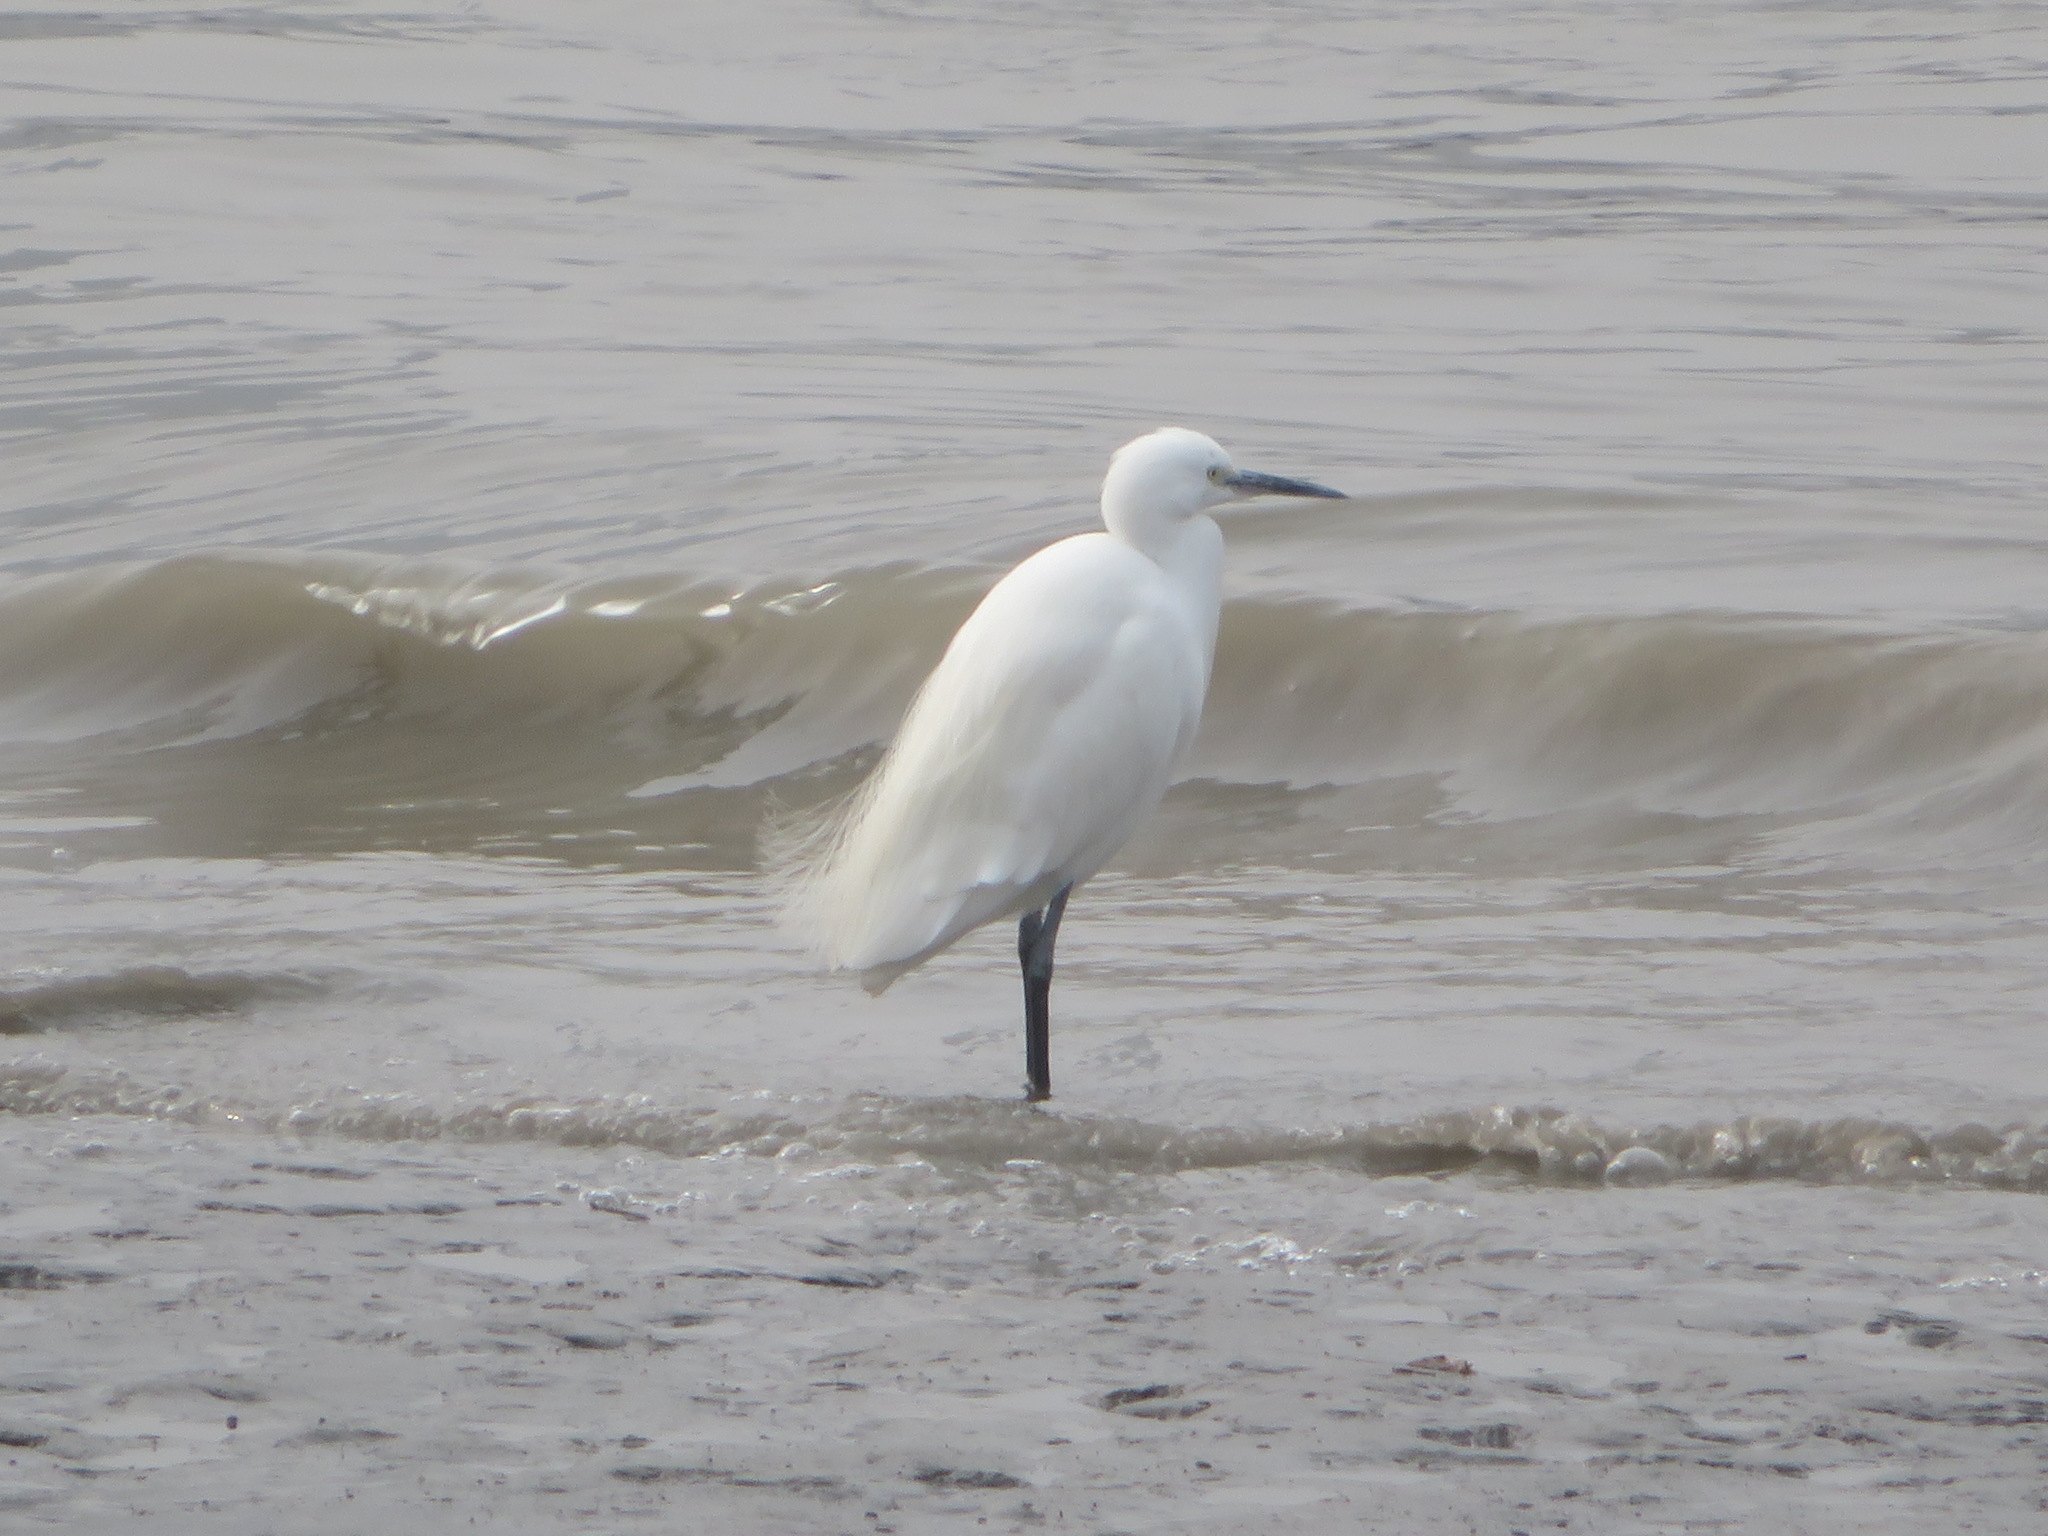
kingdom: Animalia
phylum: Chordata
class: Aves
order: Pelecaniformes
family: Ardeidae
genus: Egretta
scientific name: Egretta garzetta
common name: Little egret
